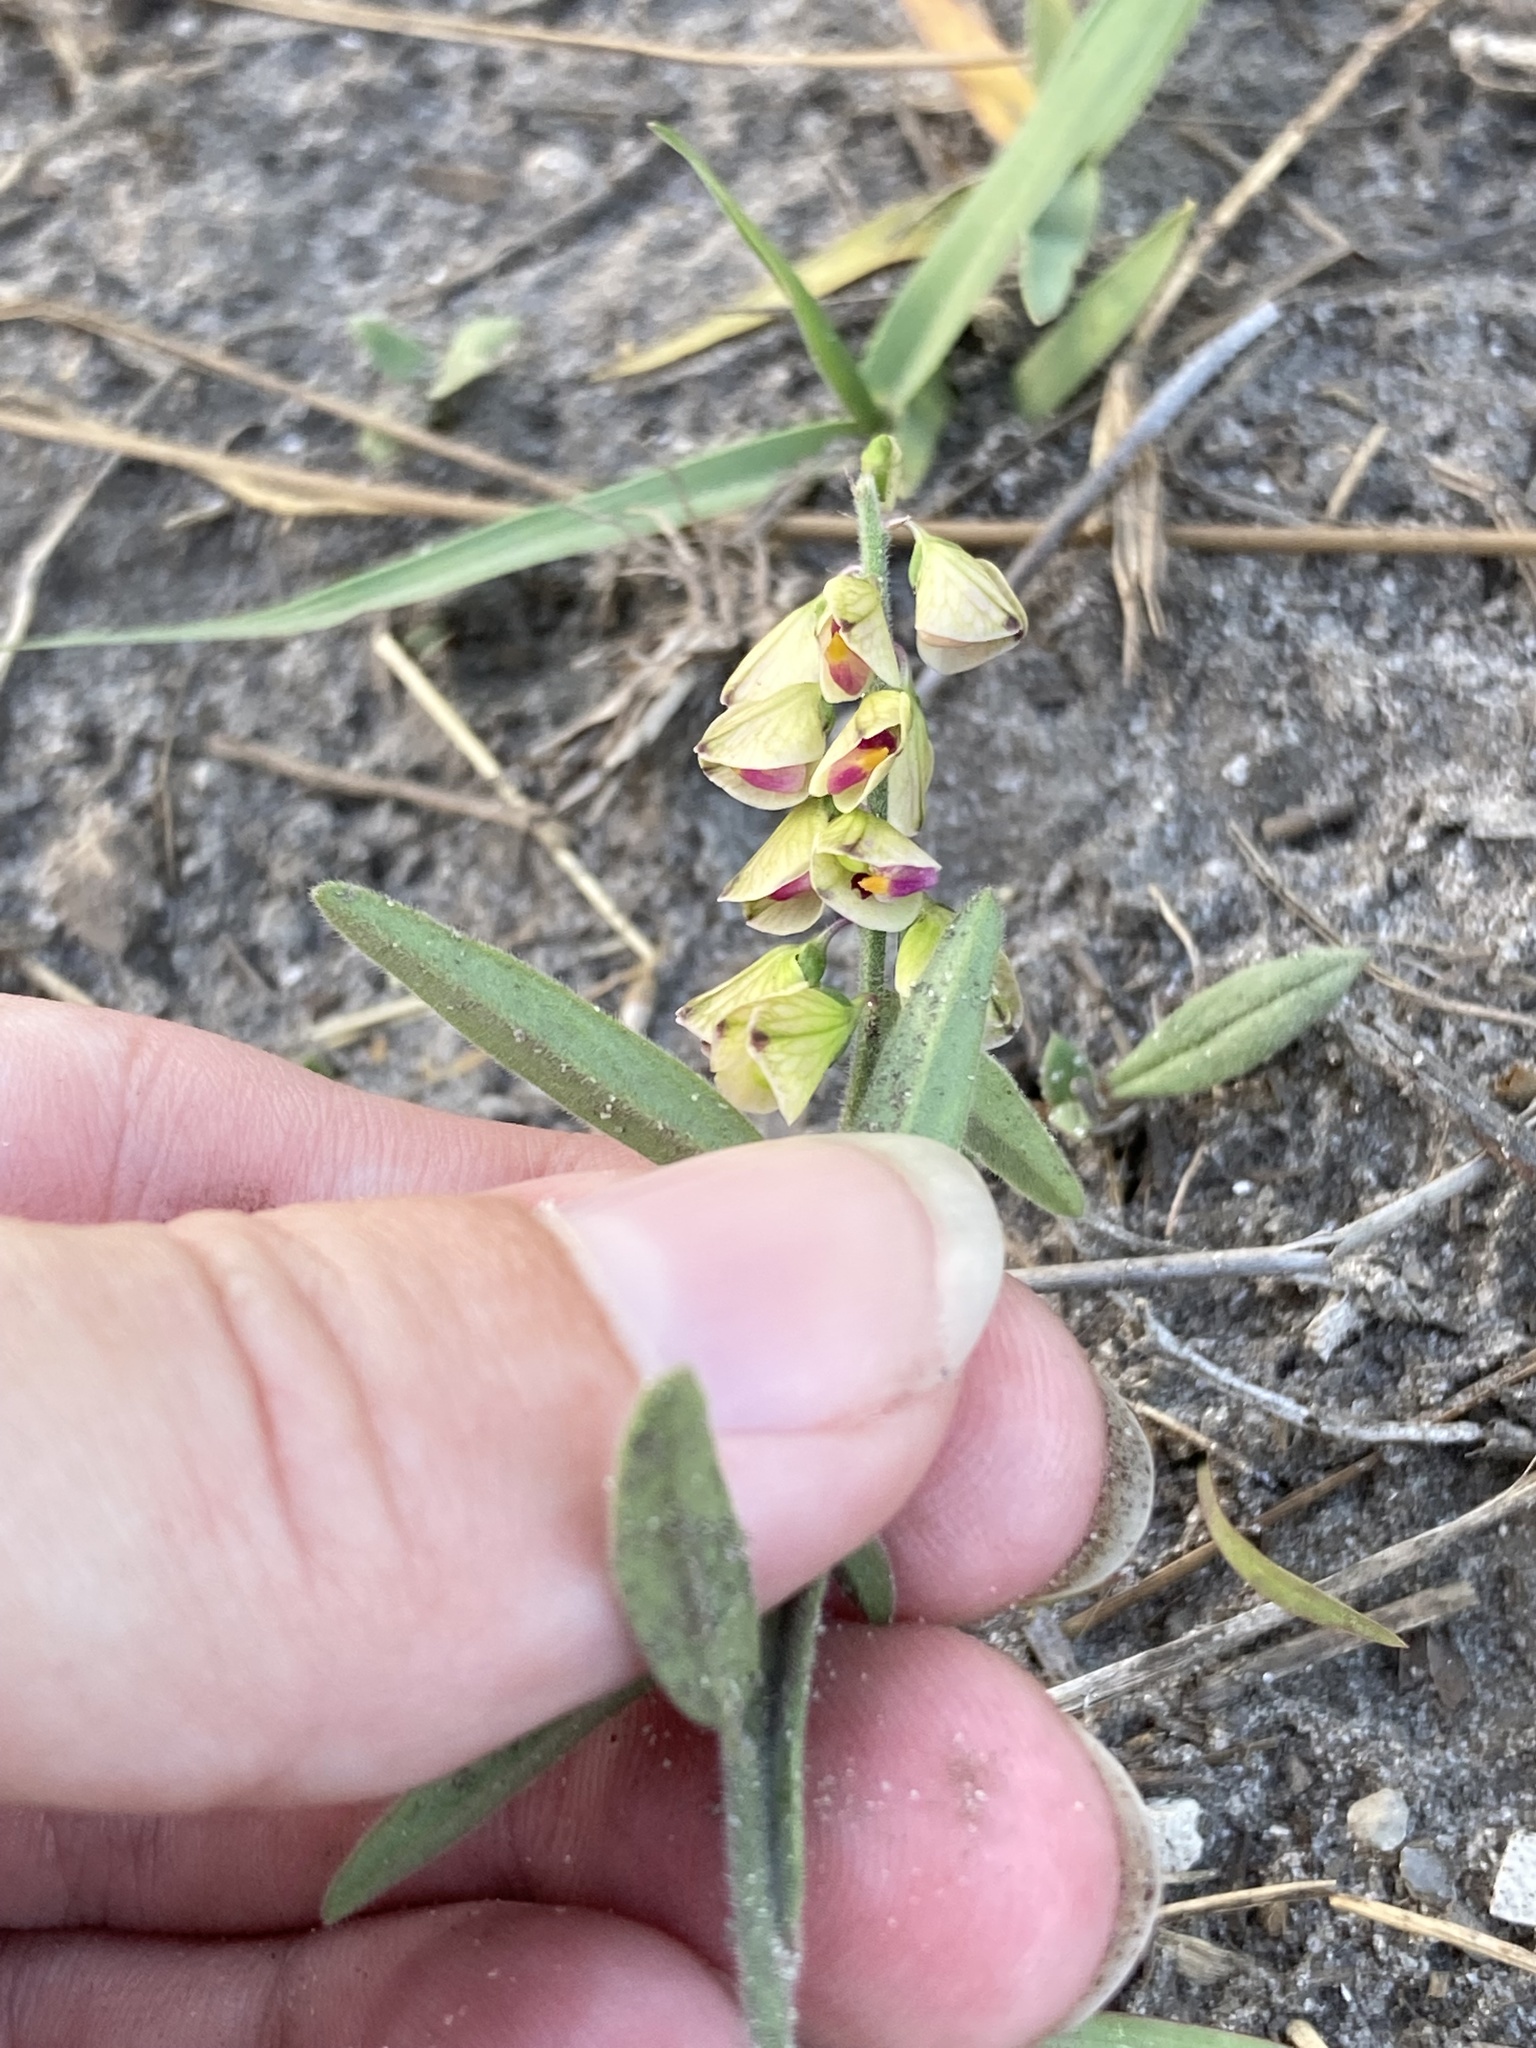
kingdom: Plantae
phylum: Tracheophyta
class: Magnoliopsida
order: Fabales
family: Polygalaceae
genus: Asemeia
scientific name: Asemeia grandiflora
